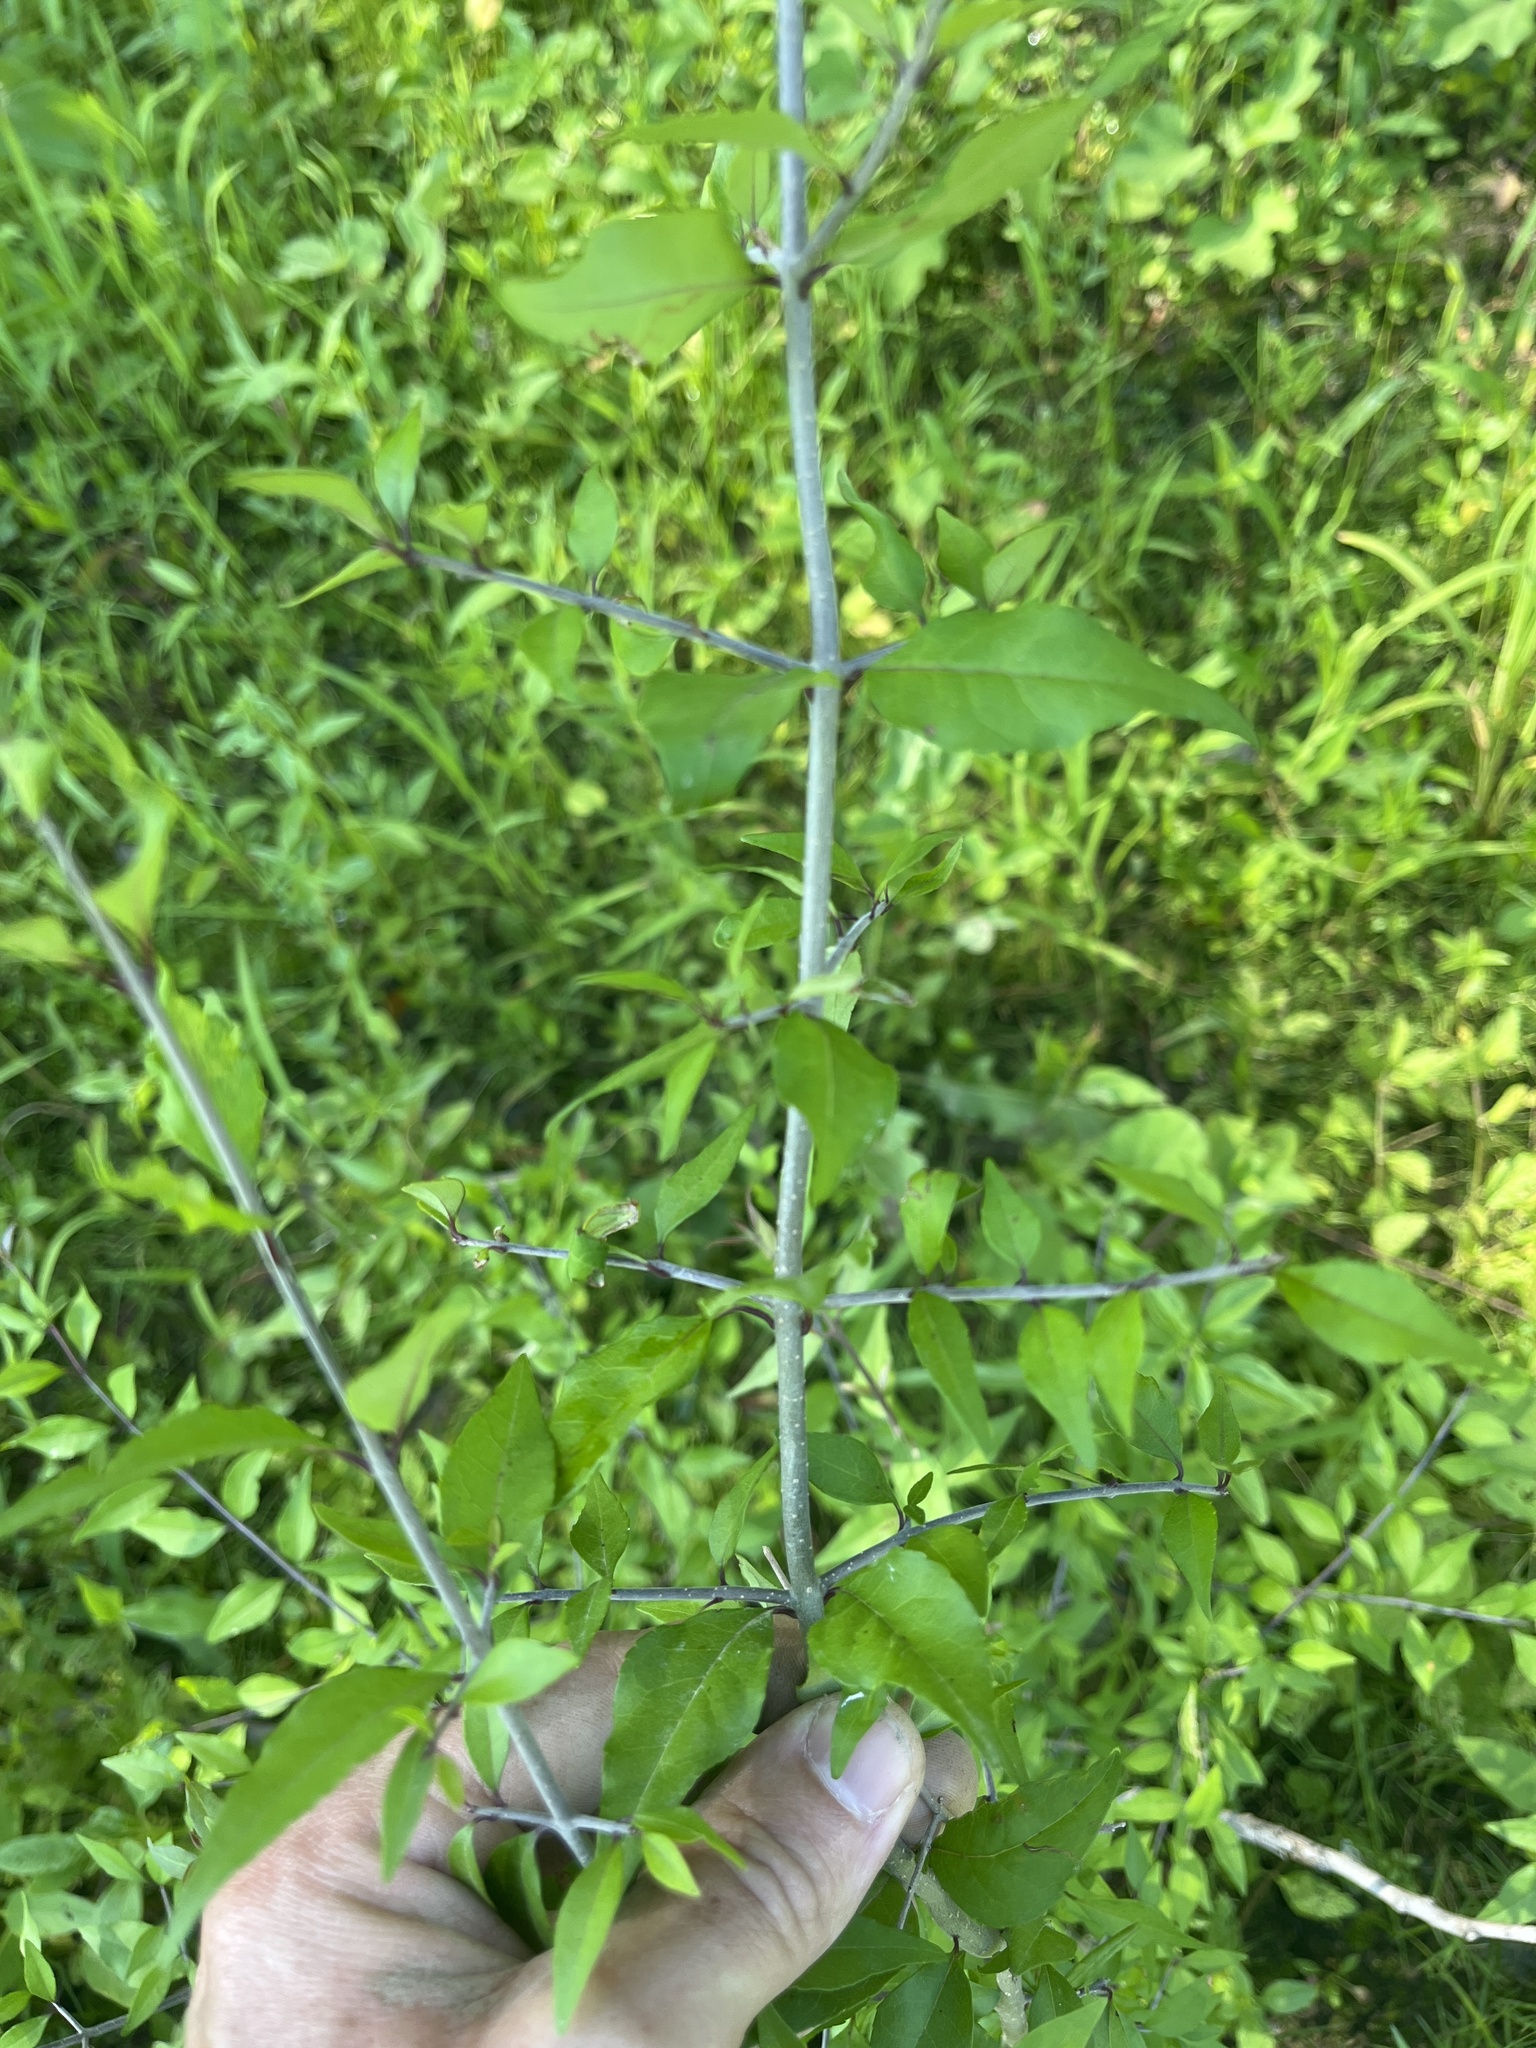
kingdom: Plantae
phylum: Tracheophyta
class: Magnoliopsida
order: Lamiales
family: Oleaceae
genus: Forestiera
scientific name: Forestiera acuminata
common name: Swamp-privet
